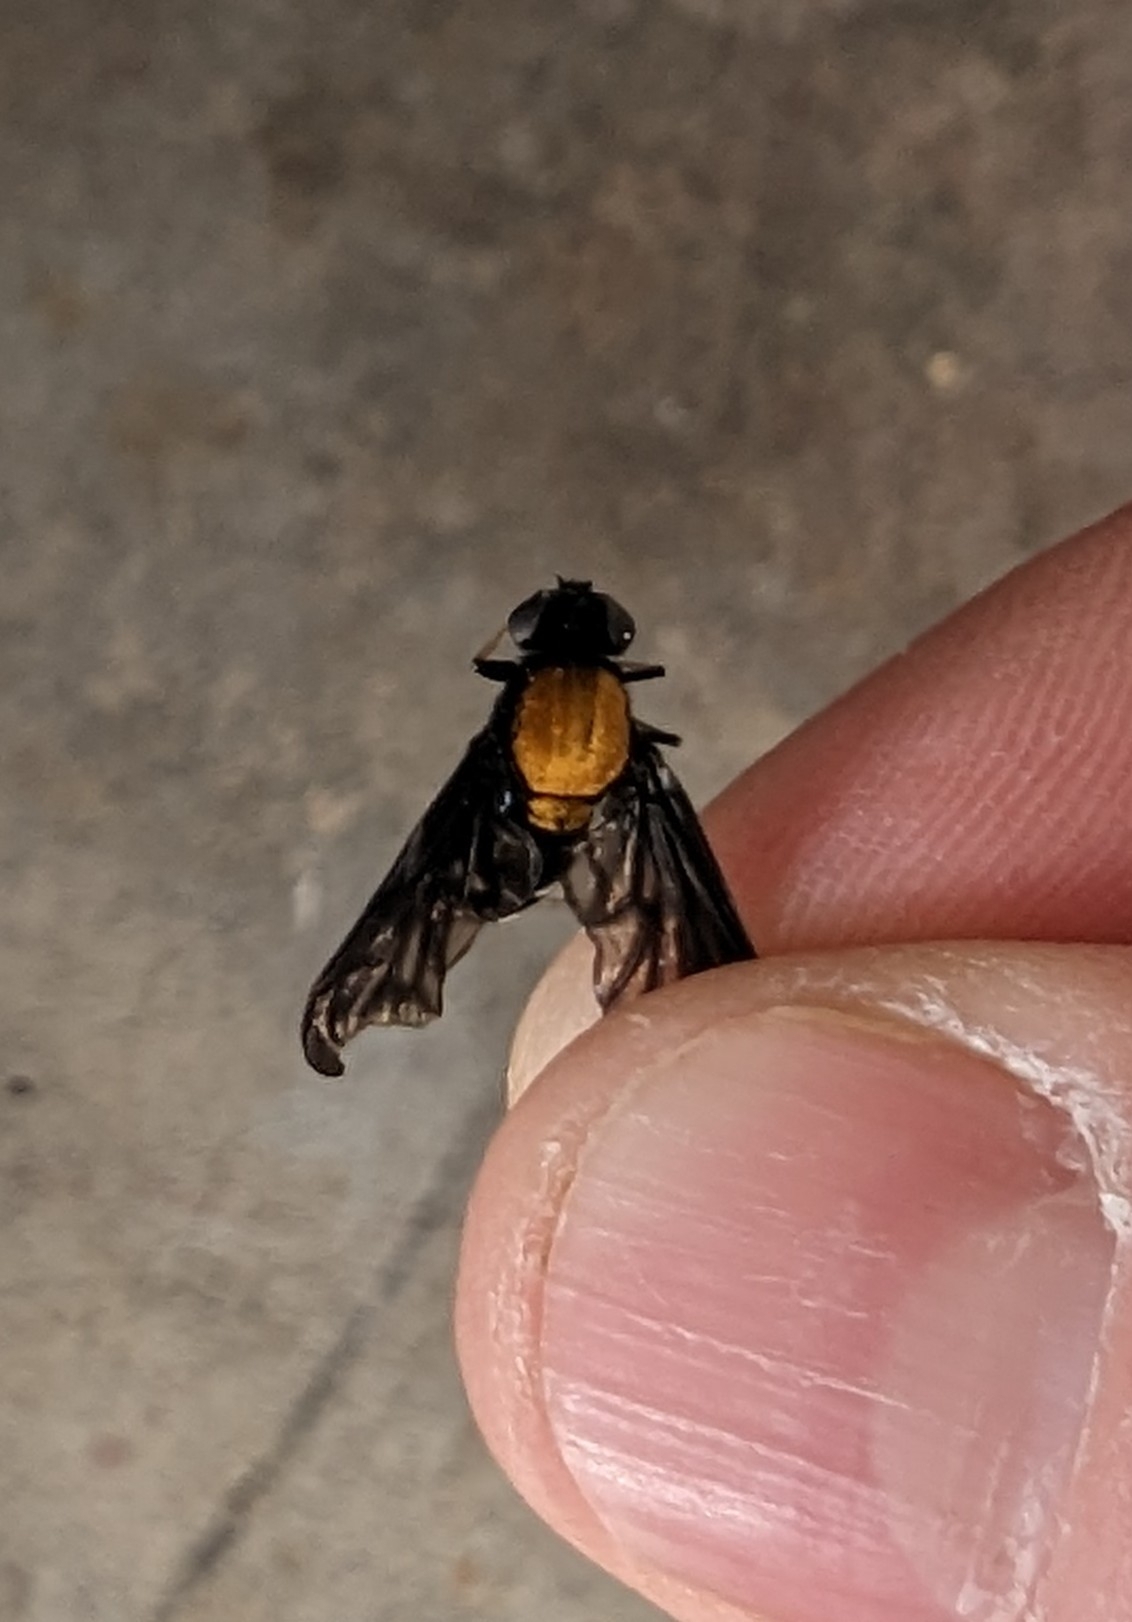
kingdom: Animalia
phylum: Arthropoda
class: Insecta
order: Diptera
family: Rhagionidae
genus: Chrysopilus
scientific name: Chrysopilus thoracicus
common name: Golden-backed snipe fly
